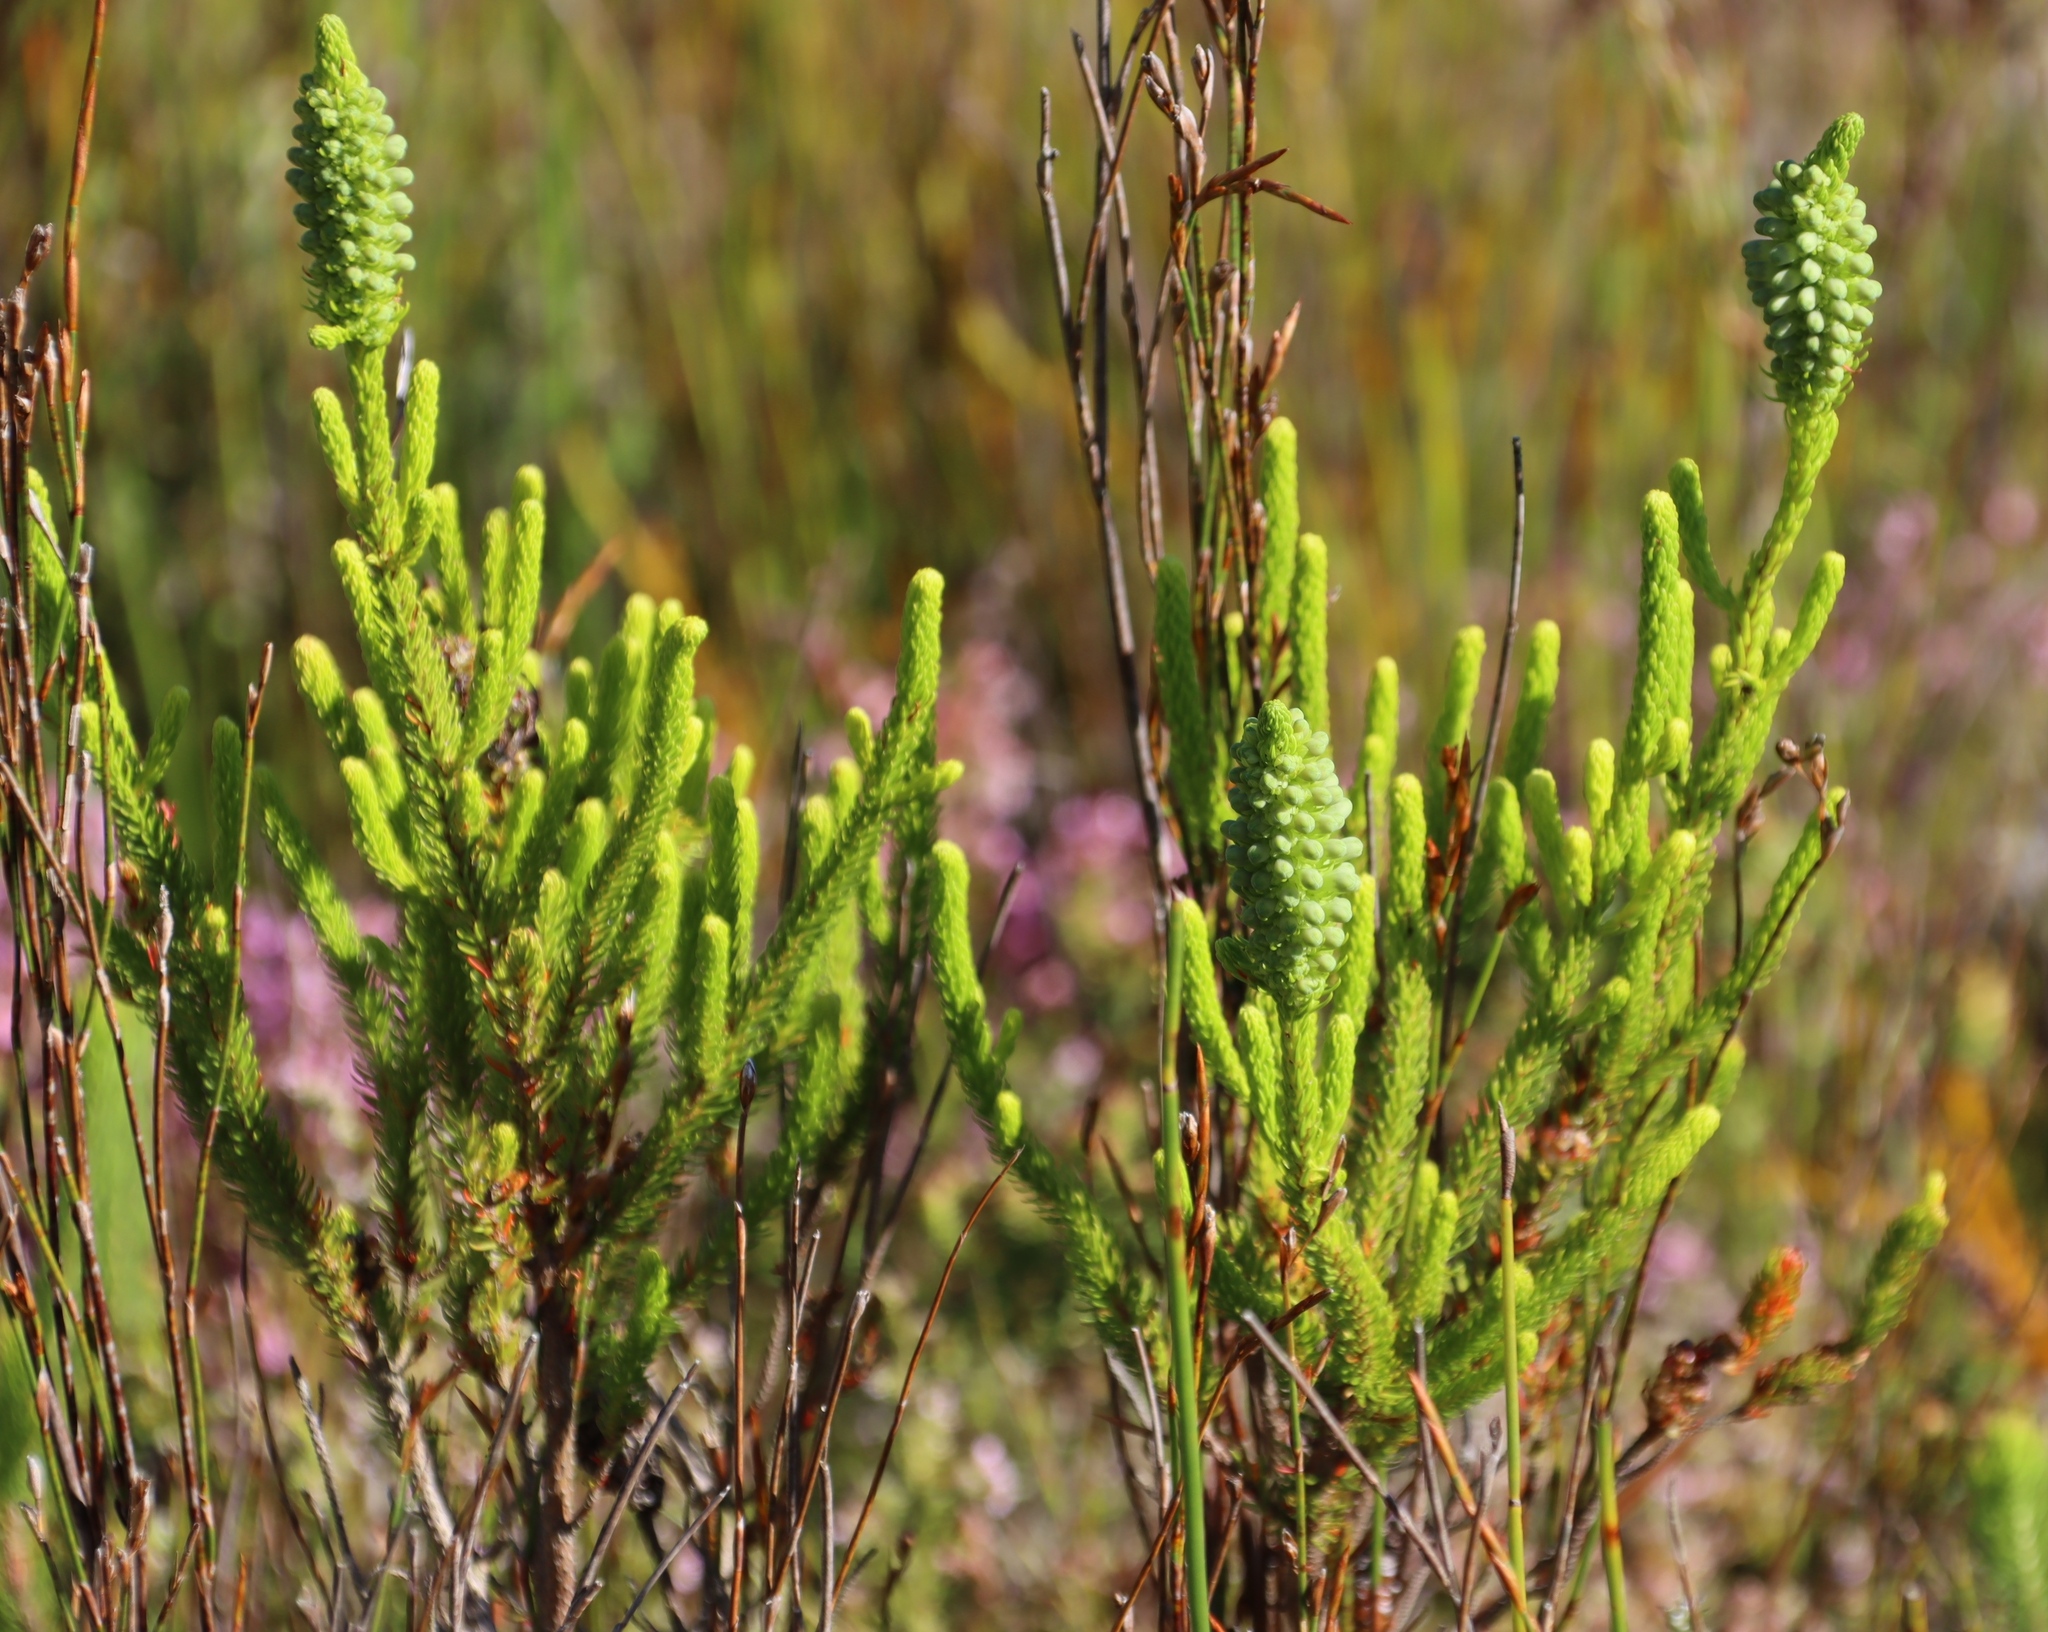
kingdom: Plantae
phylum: Tracheophyta
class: Magnoliopsida
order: Ericales
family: Ericaceae
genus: Erica
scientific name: Erica sessiliflora
